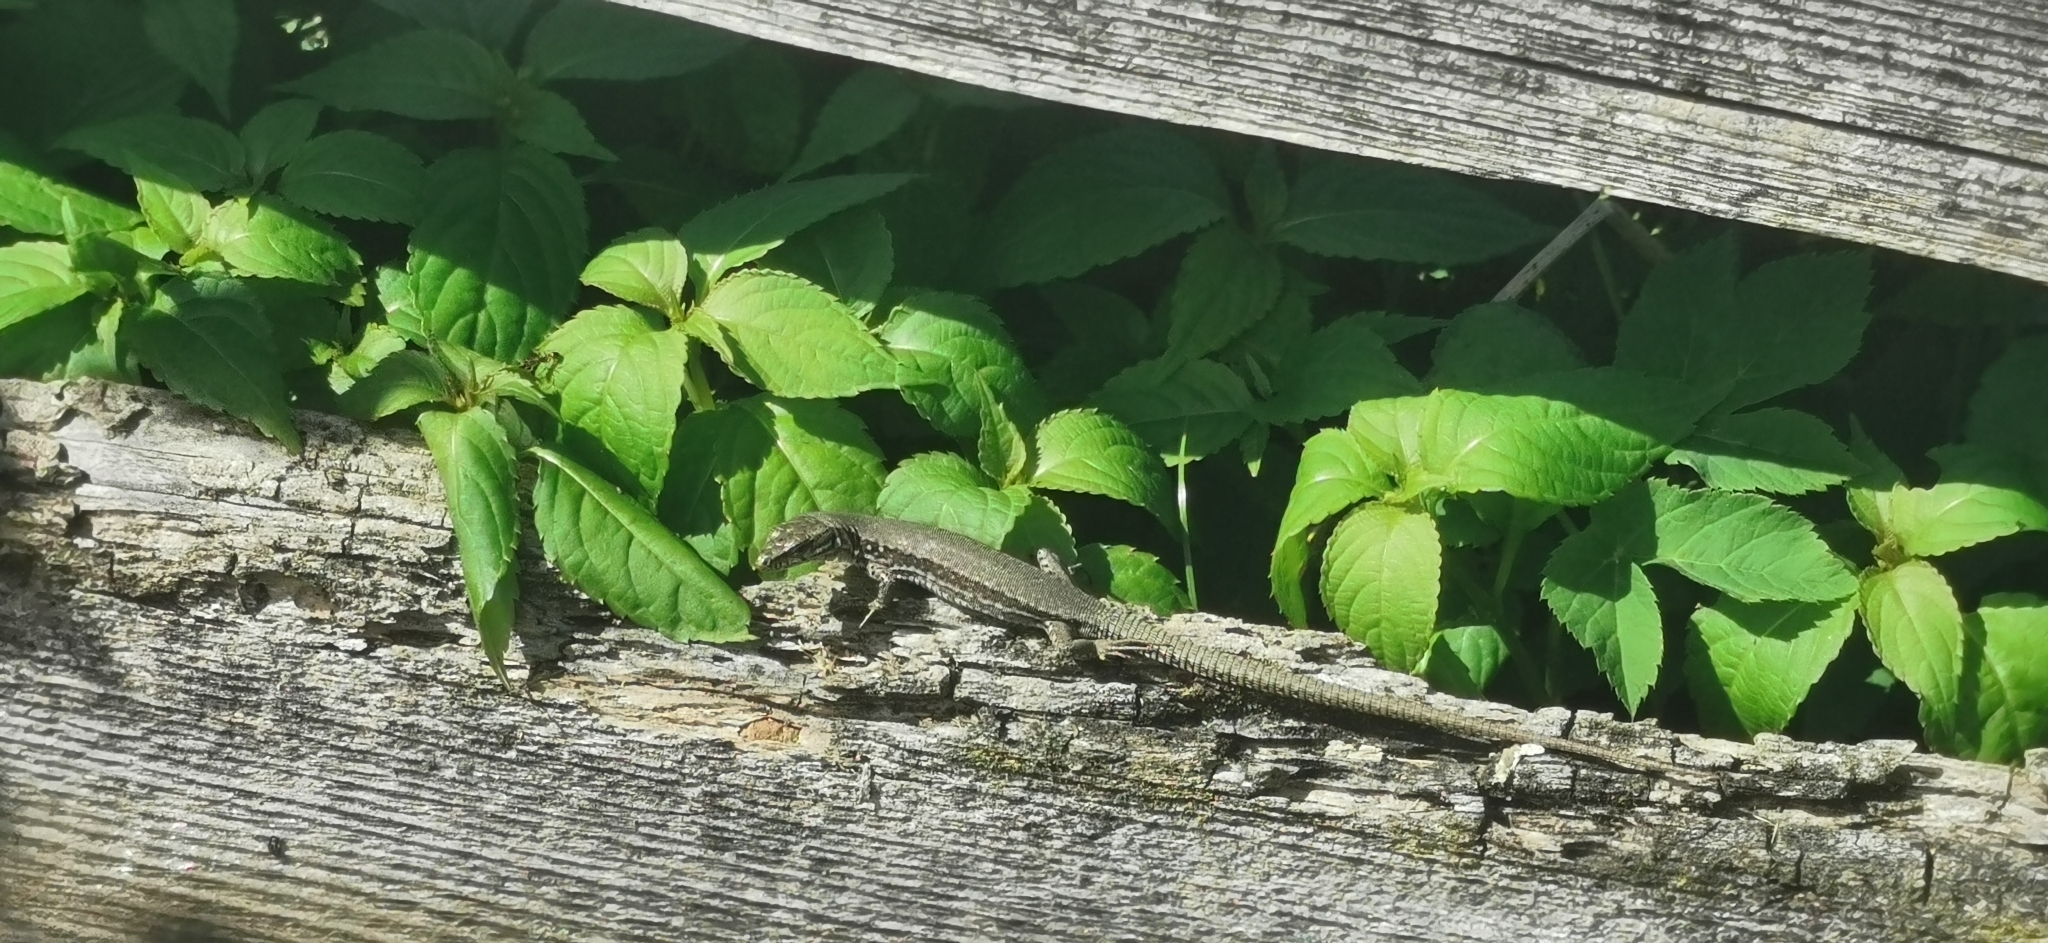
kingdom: Animalia
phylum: Chordata
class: Squamata
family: Lacertidae
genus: Podarcis
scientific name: Podarcis muralis
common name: Common wall lizard
